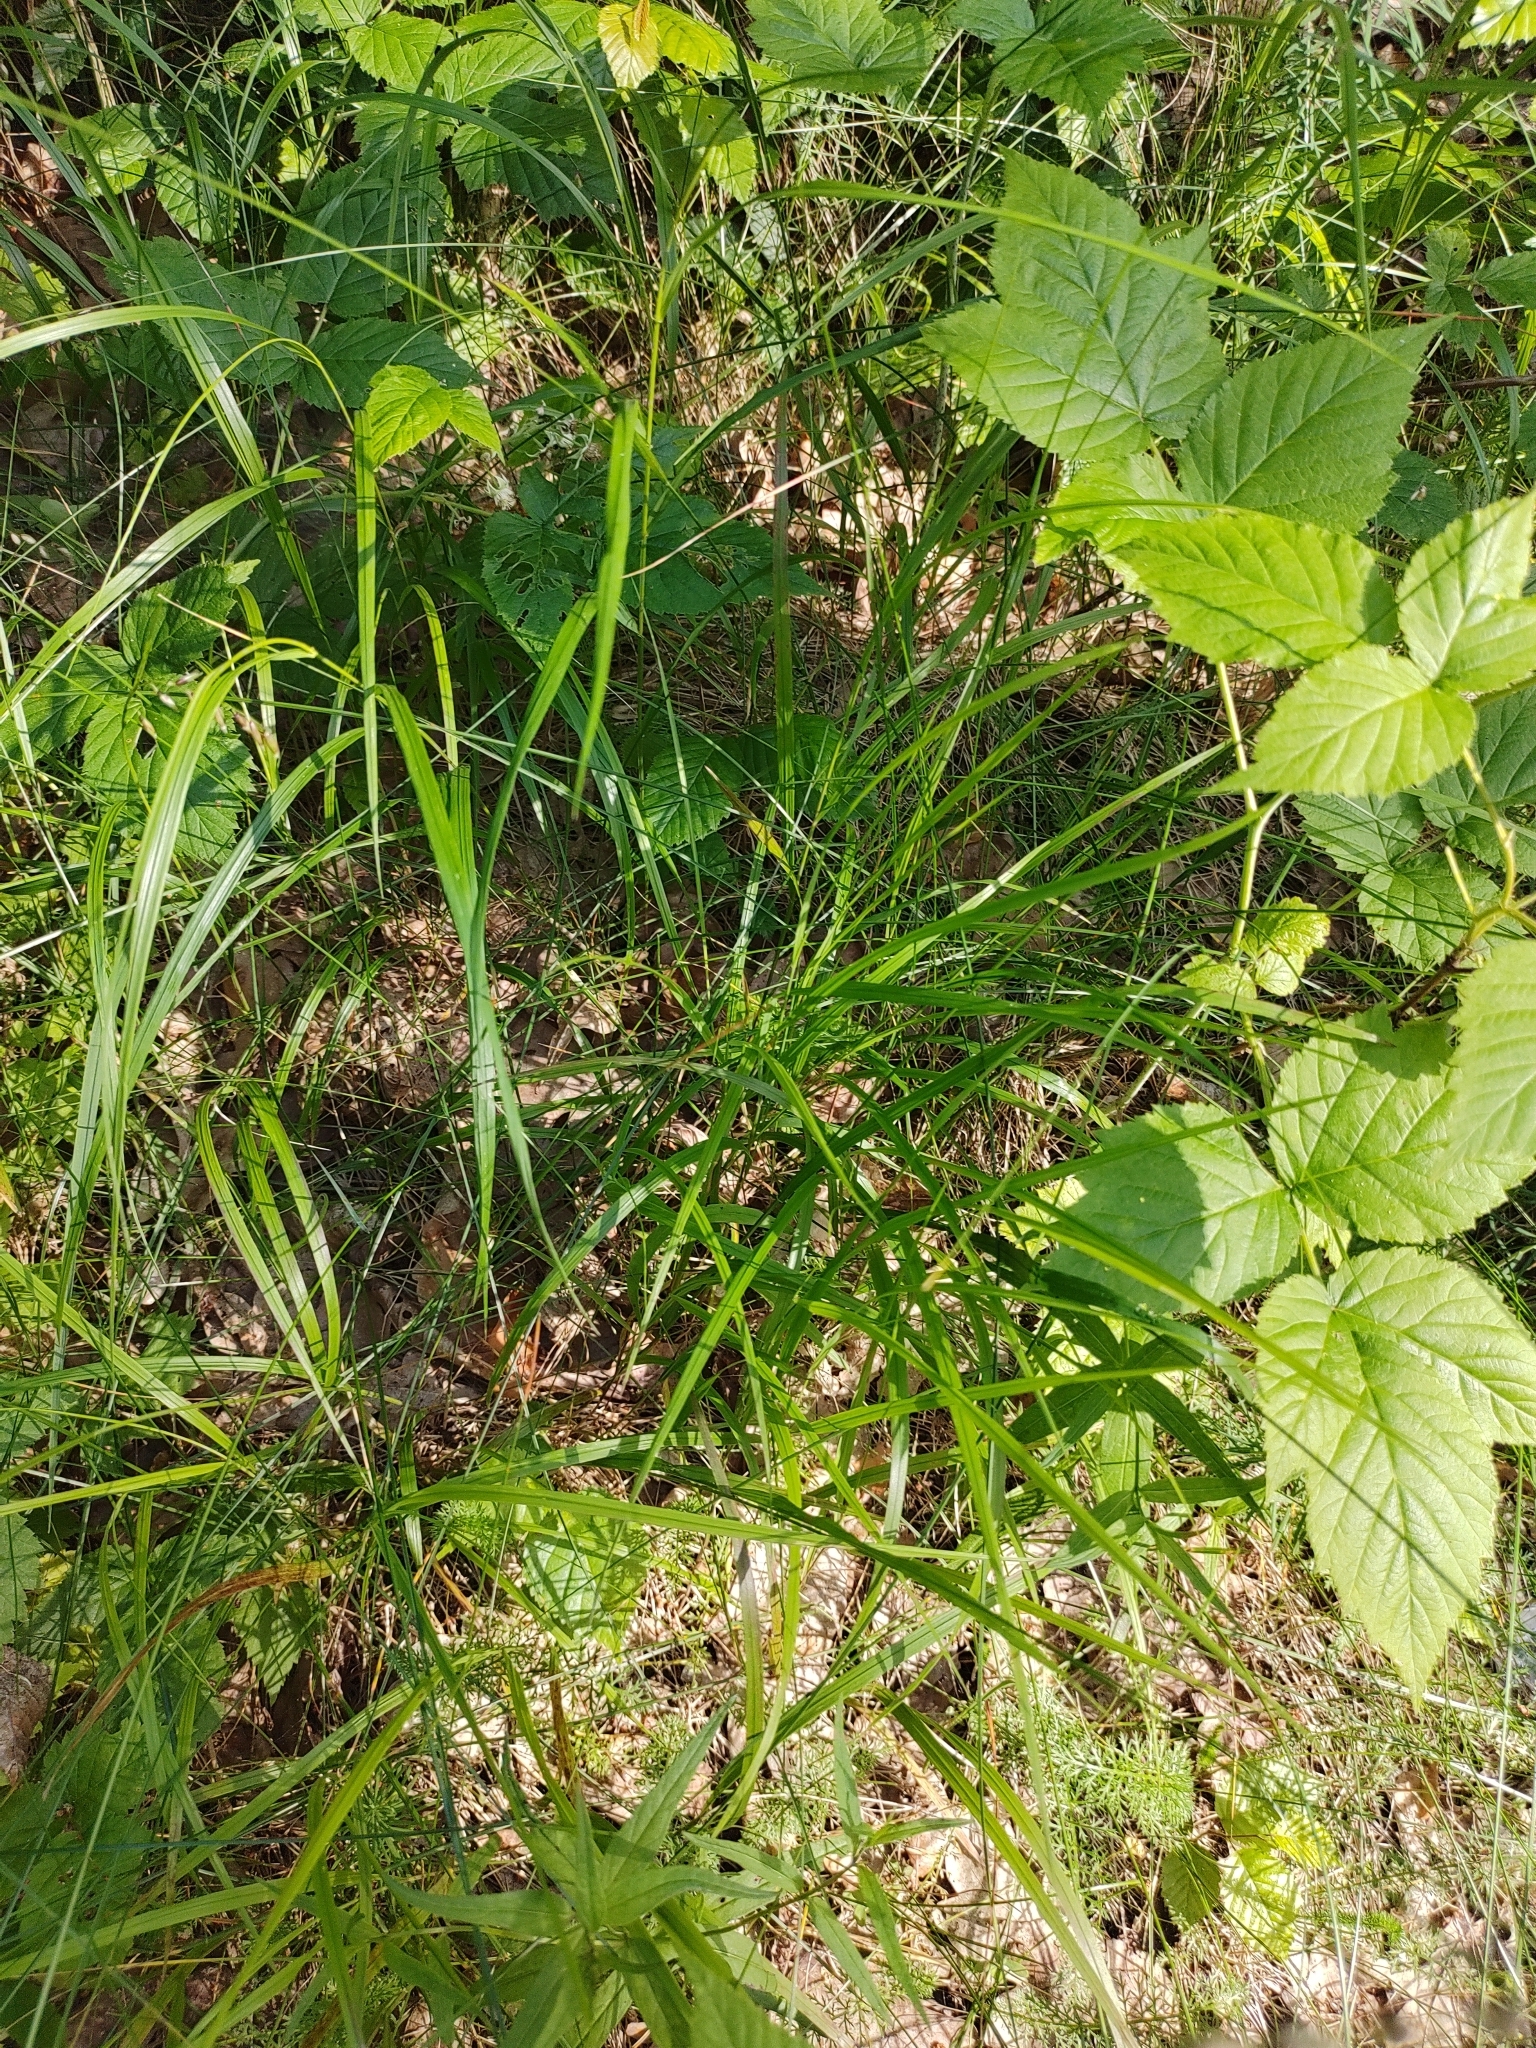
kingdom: Plantae
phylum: Tracheophyta
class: Liliopsida
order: Poales
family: Poaceae
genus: Melica
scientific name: Melica nutans
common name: Mountain melick
